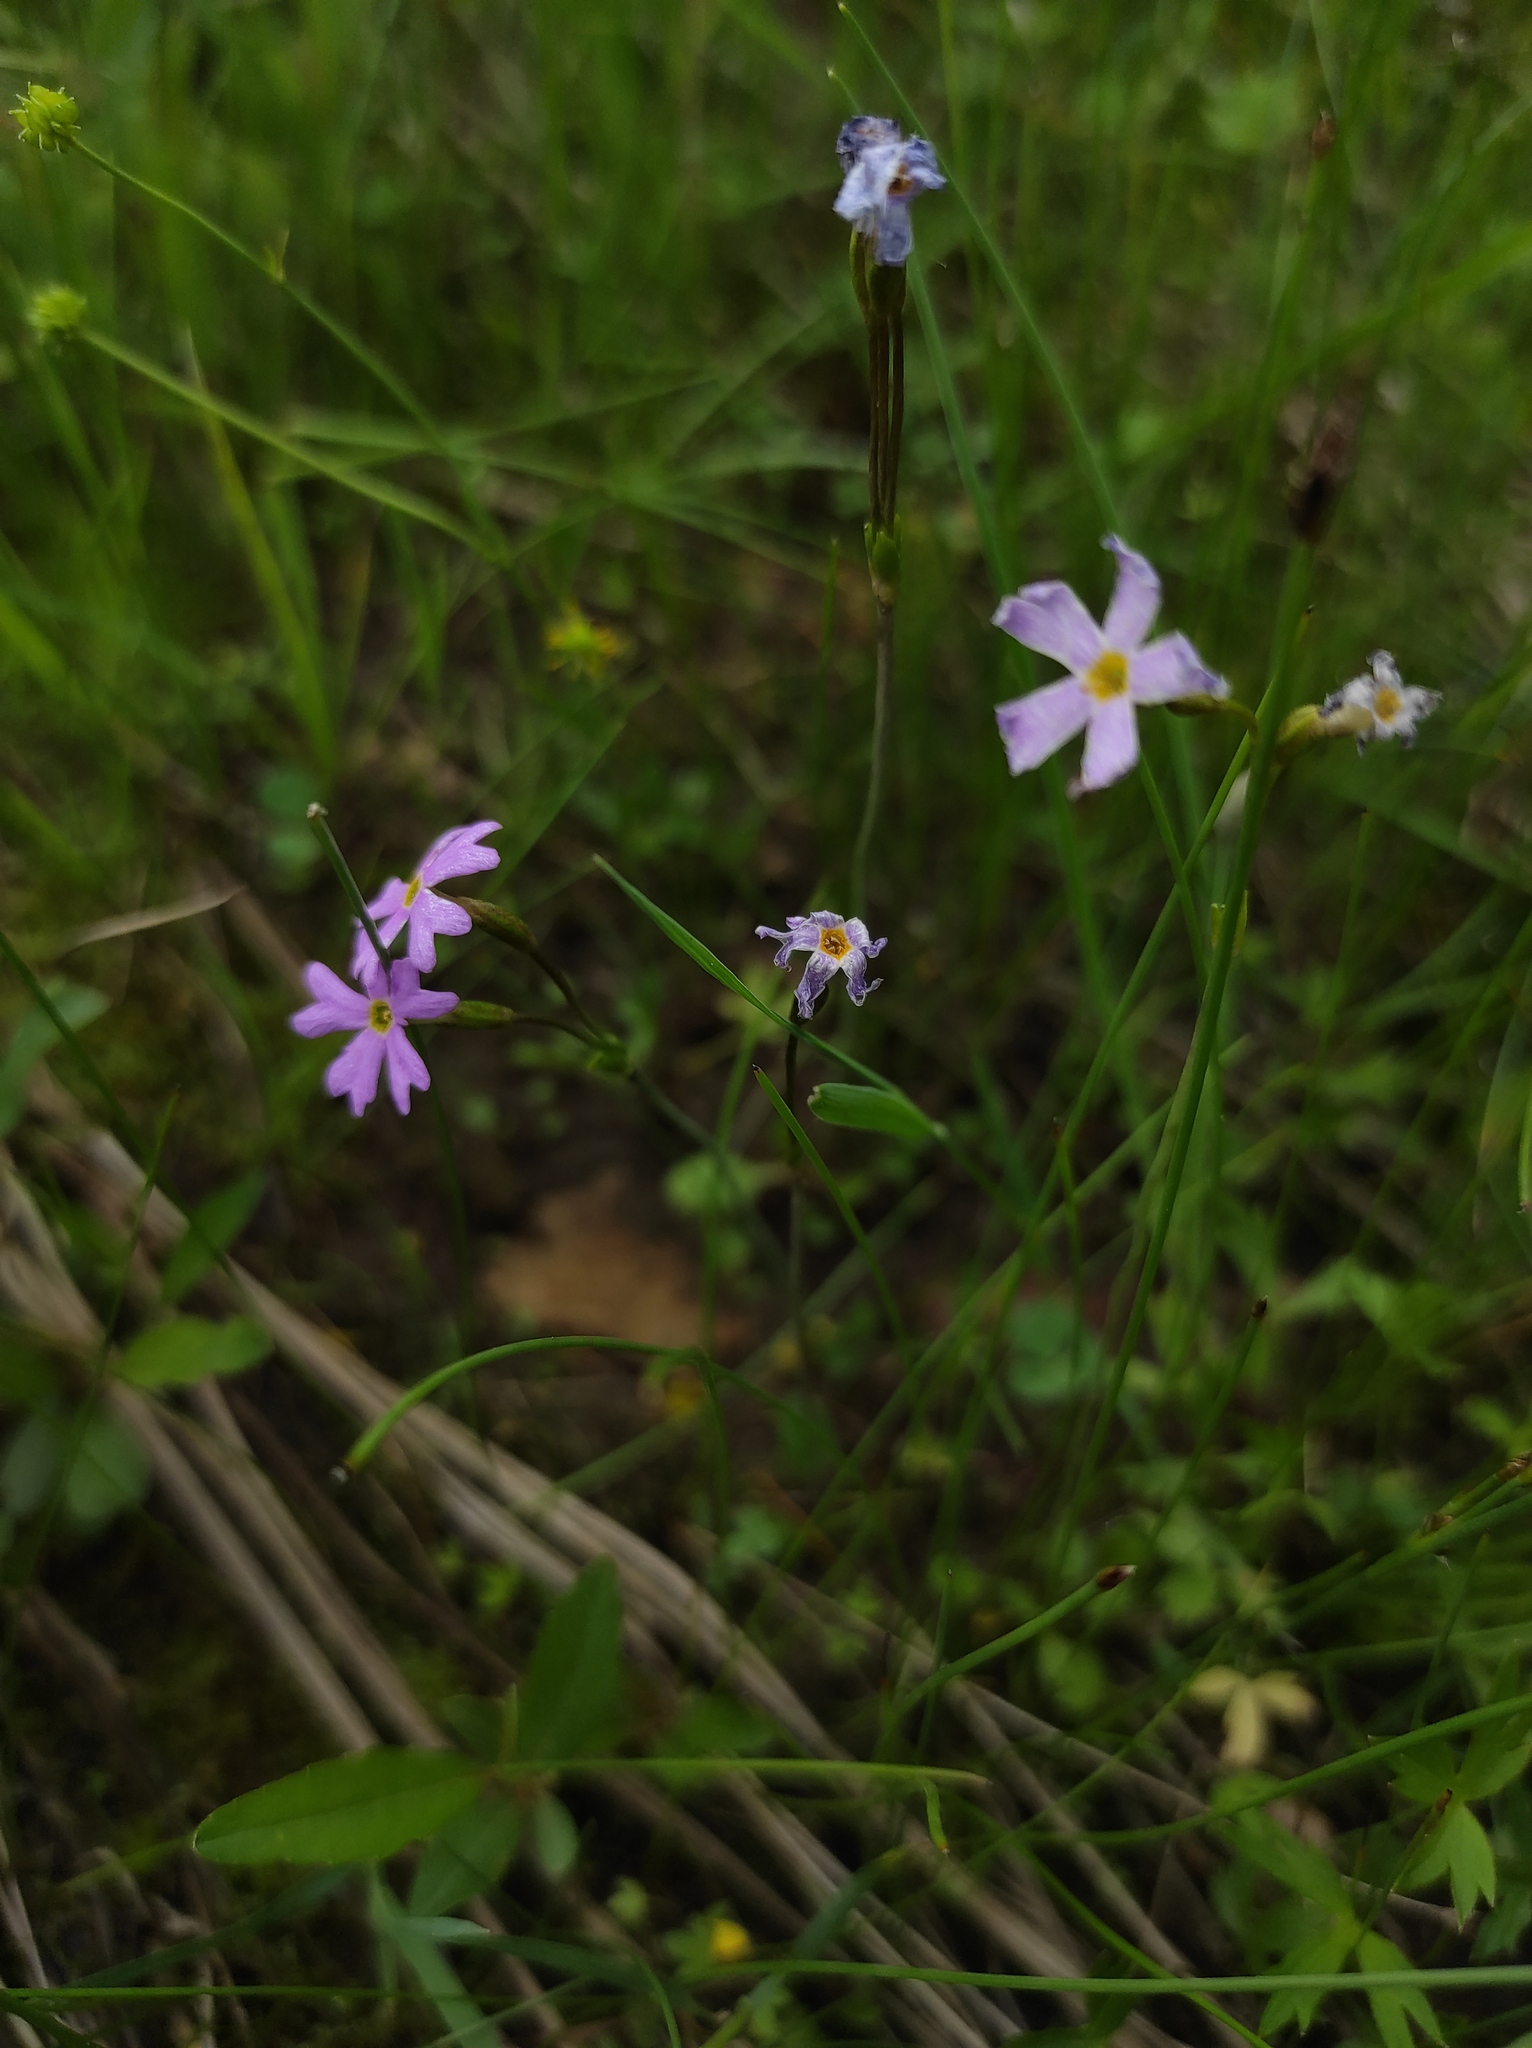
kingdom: Plantae
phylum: Tracheophyta
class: Magnoliopsida
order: Ericales
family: Primulaceae
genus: Primula
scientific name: Primula nutans
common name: Siberian primrose
